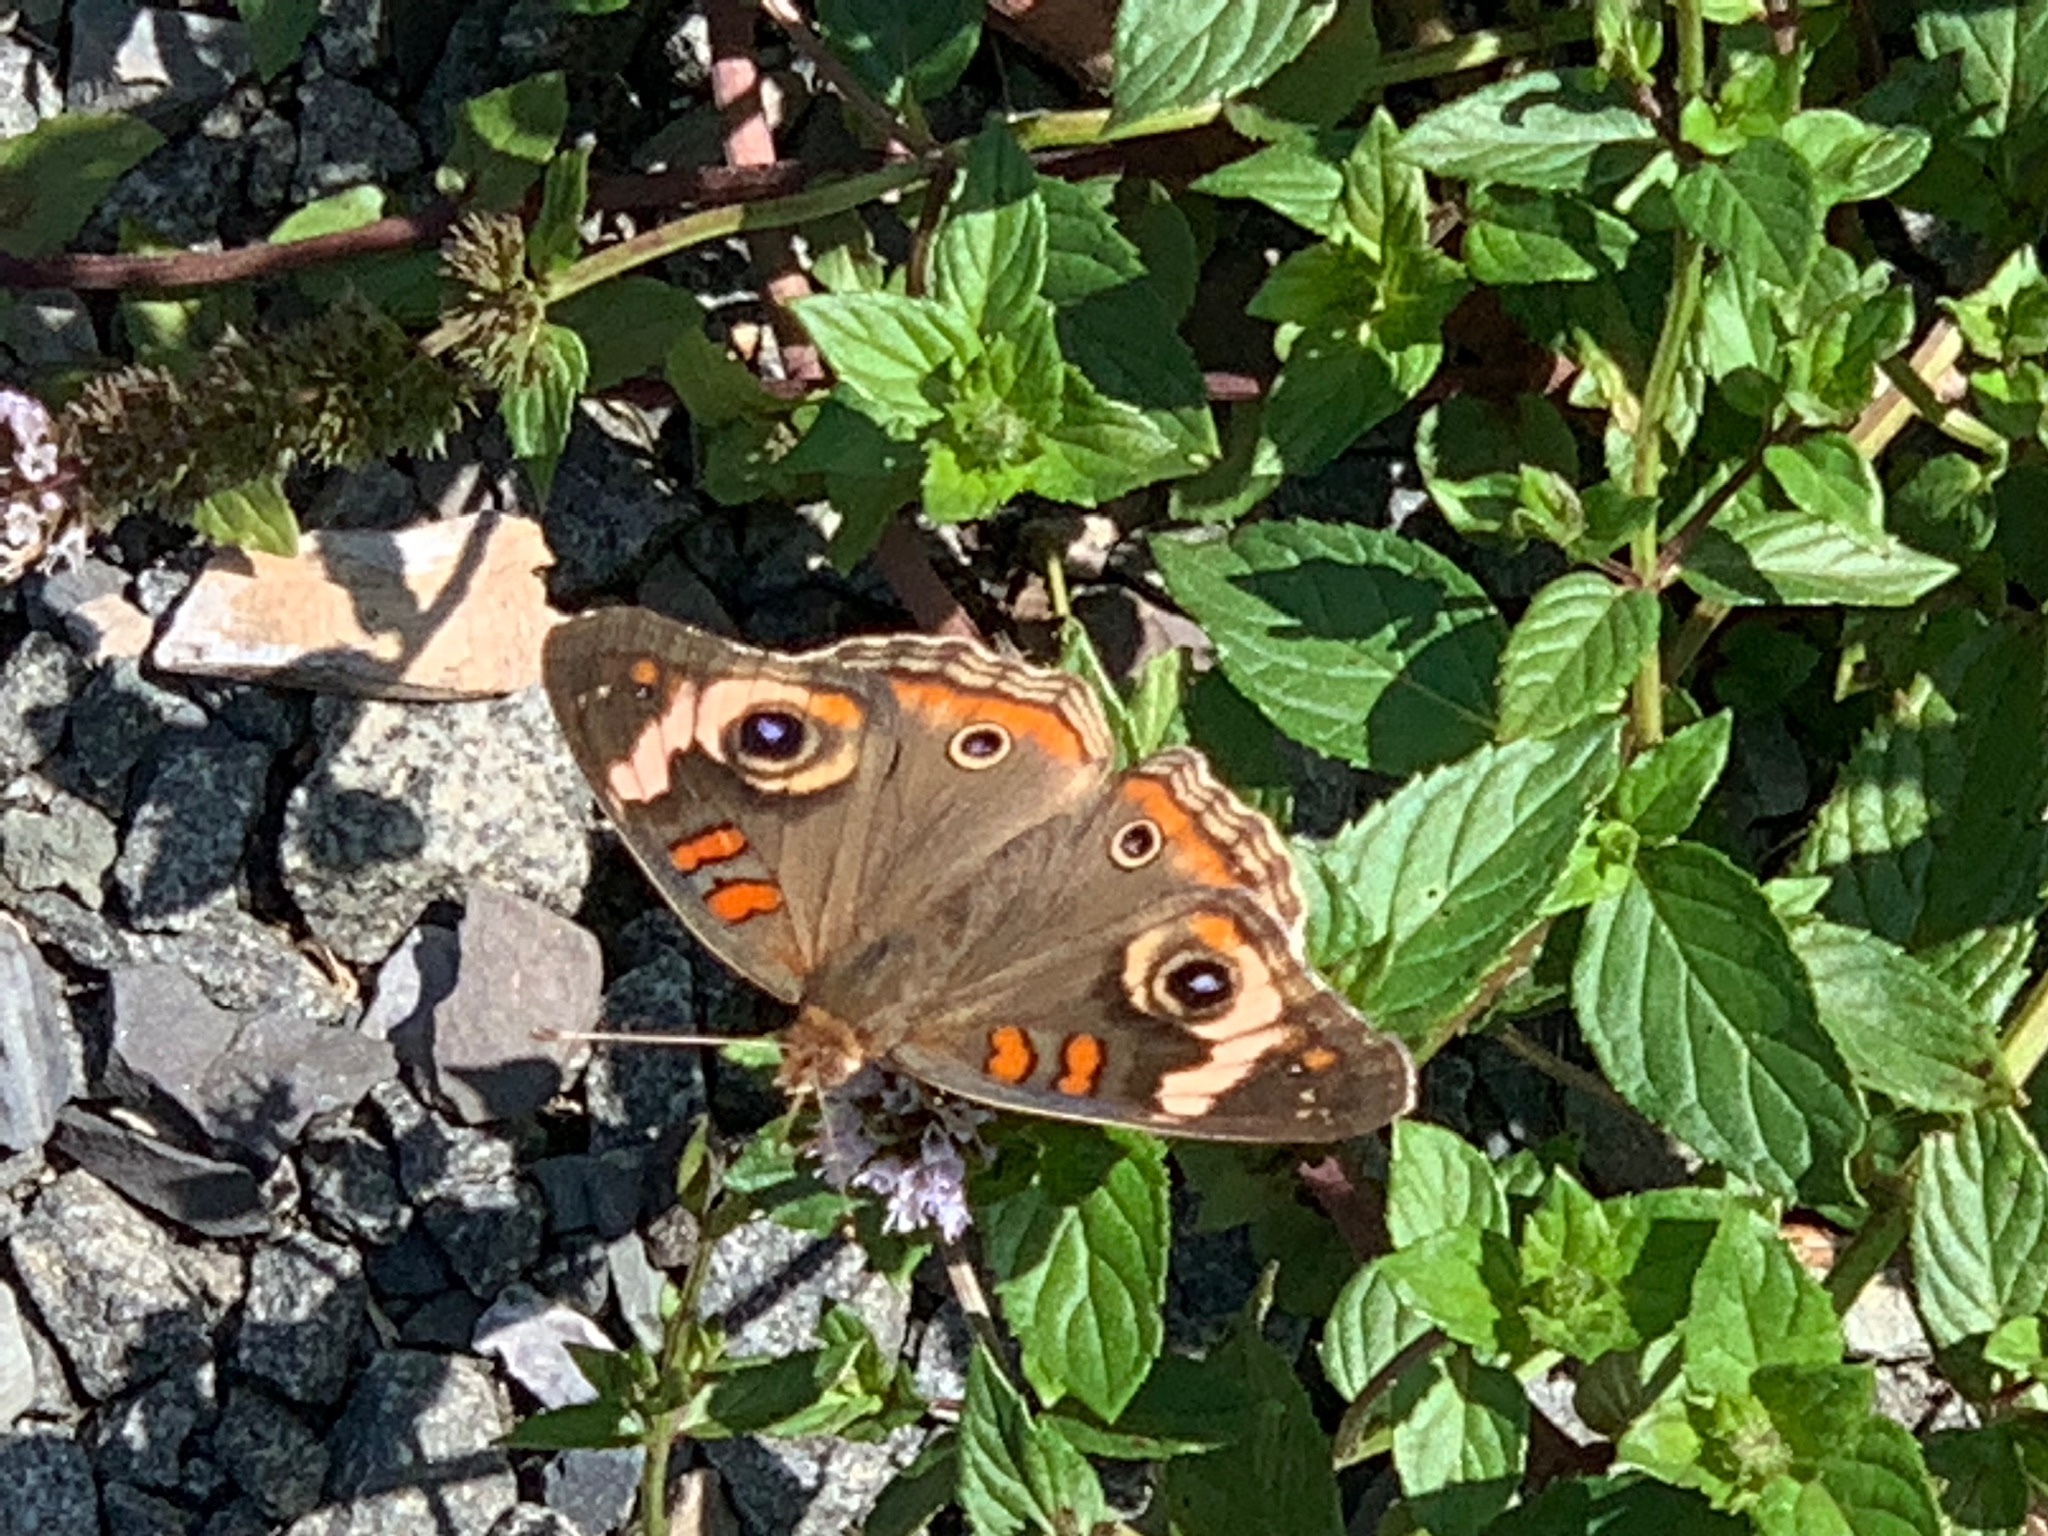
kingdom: Animalia
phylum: Arthropoda
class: Insecta
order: Lepidoptera
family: Nymphalidae
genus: Junonia
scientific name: Junonia coenia
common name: Common buckeye
